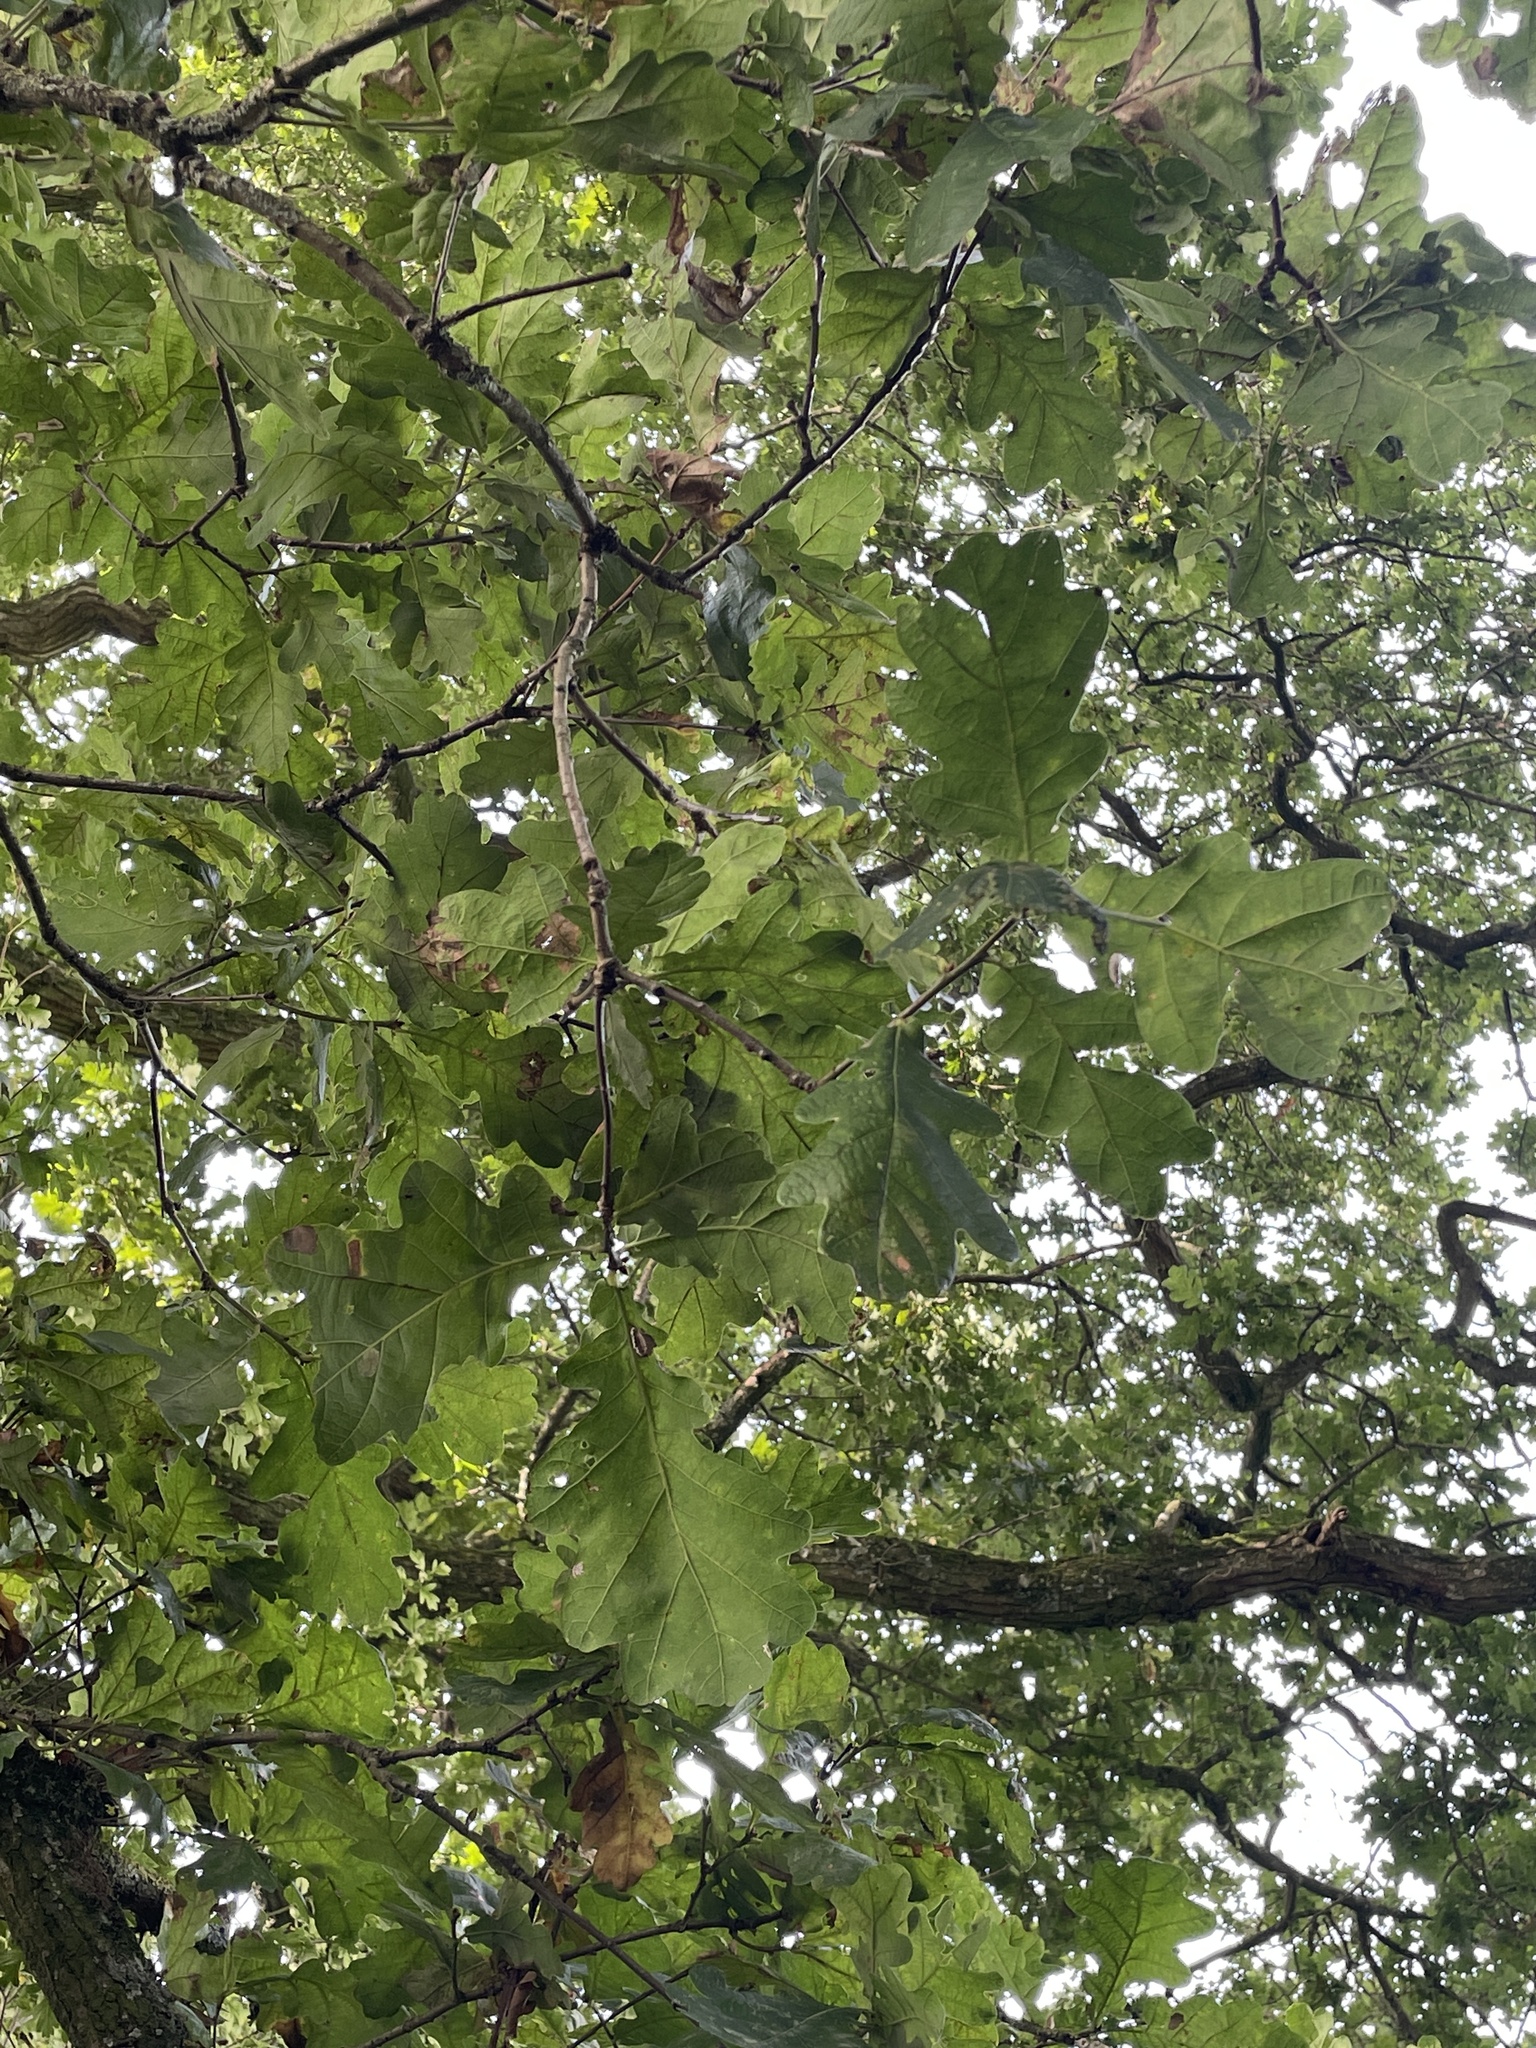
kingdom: Plantae
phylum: Tracheophyta
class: Magnoliopsida
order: Fagales
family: Fagaceae
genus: Quercus
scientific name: Quercus robur
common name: Pedunculate oak
